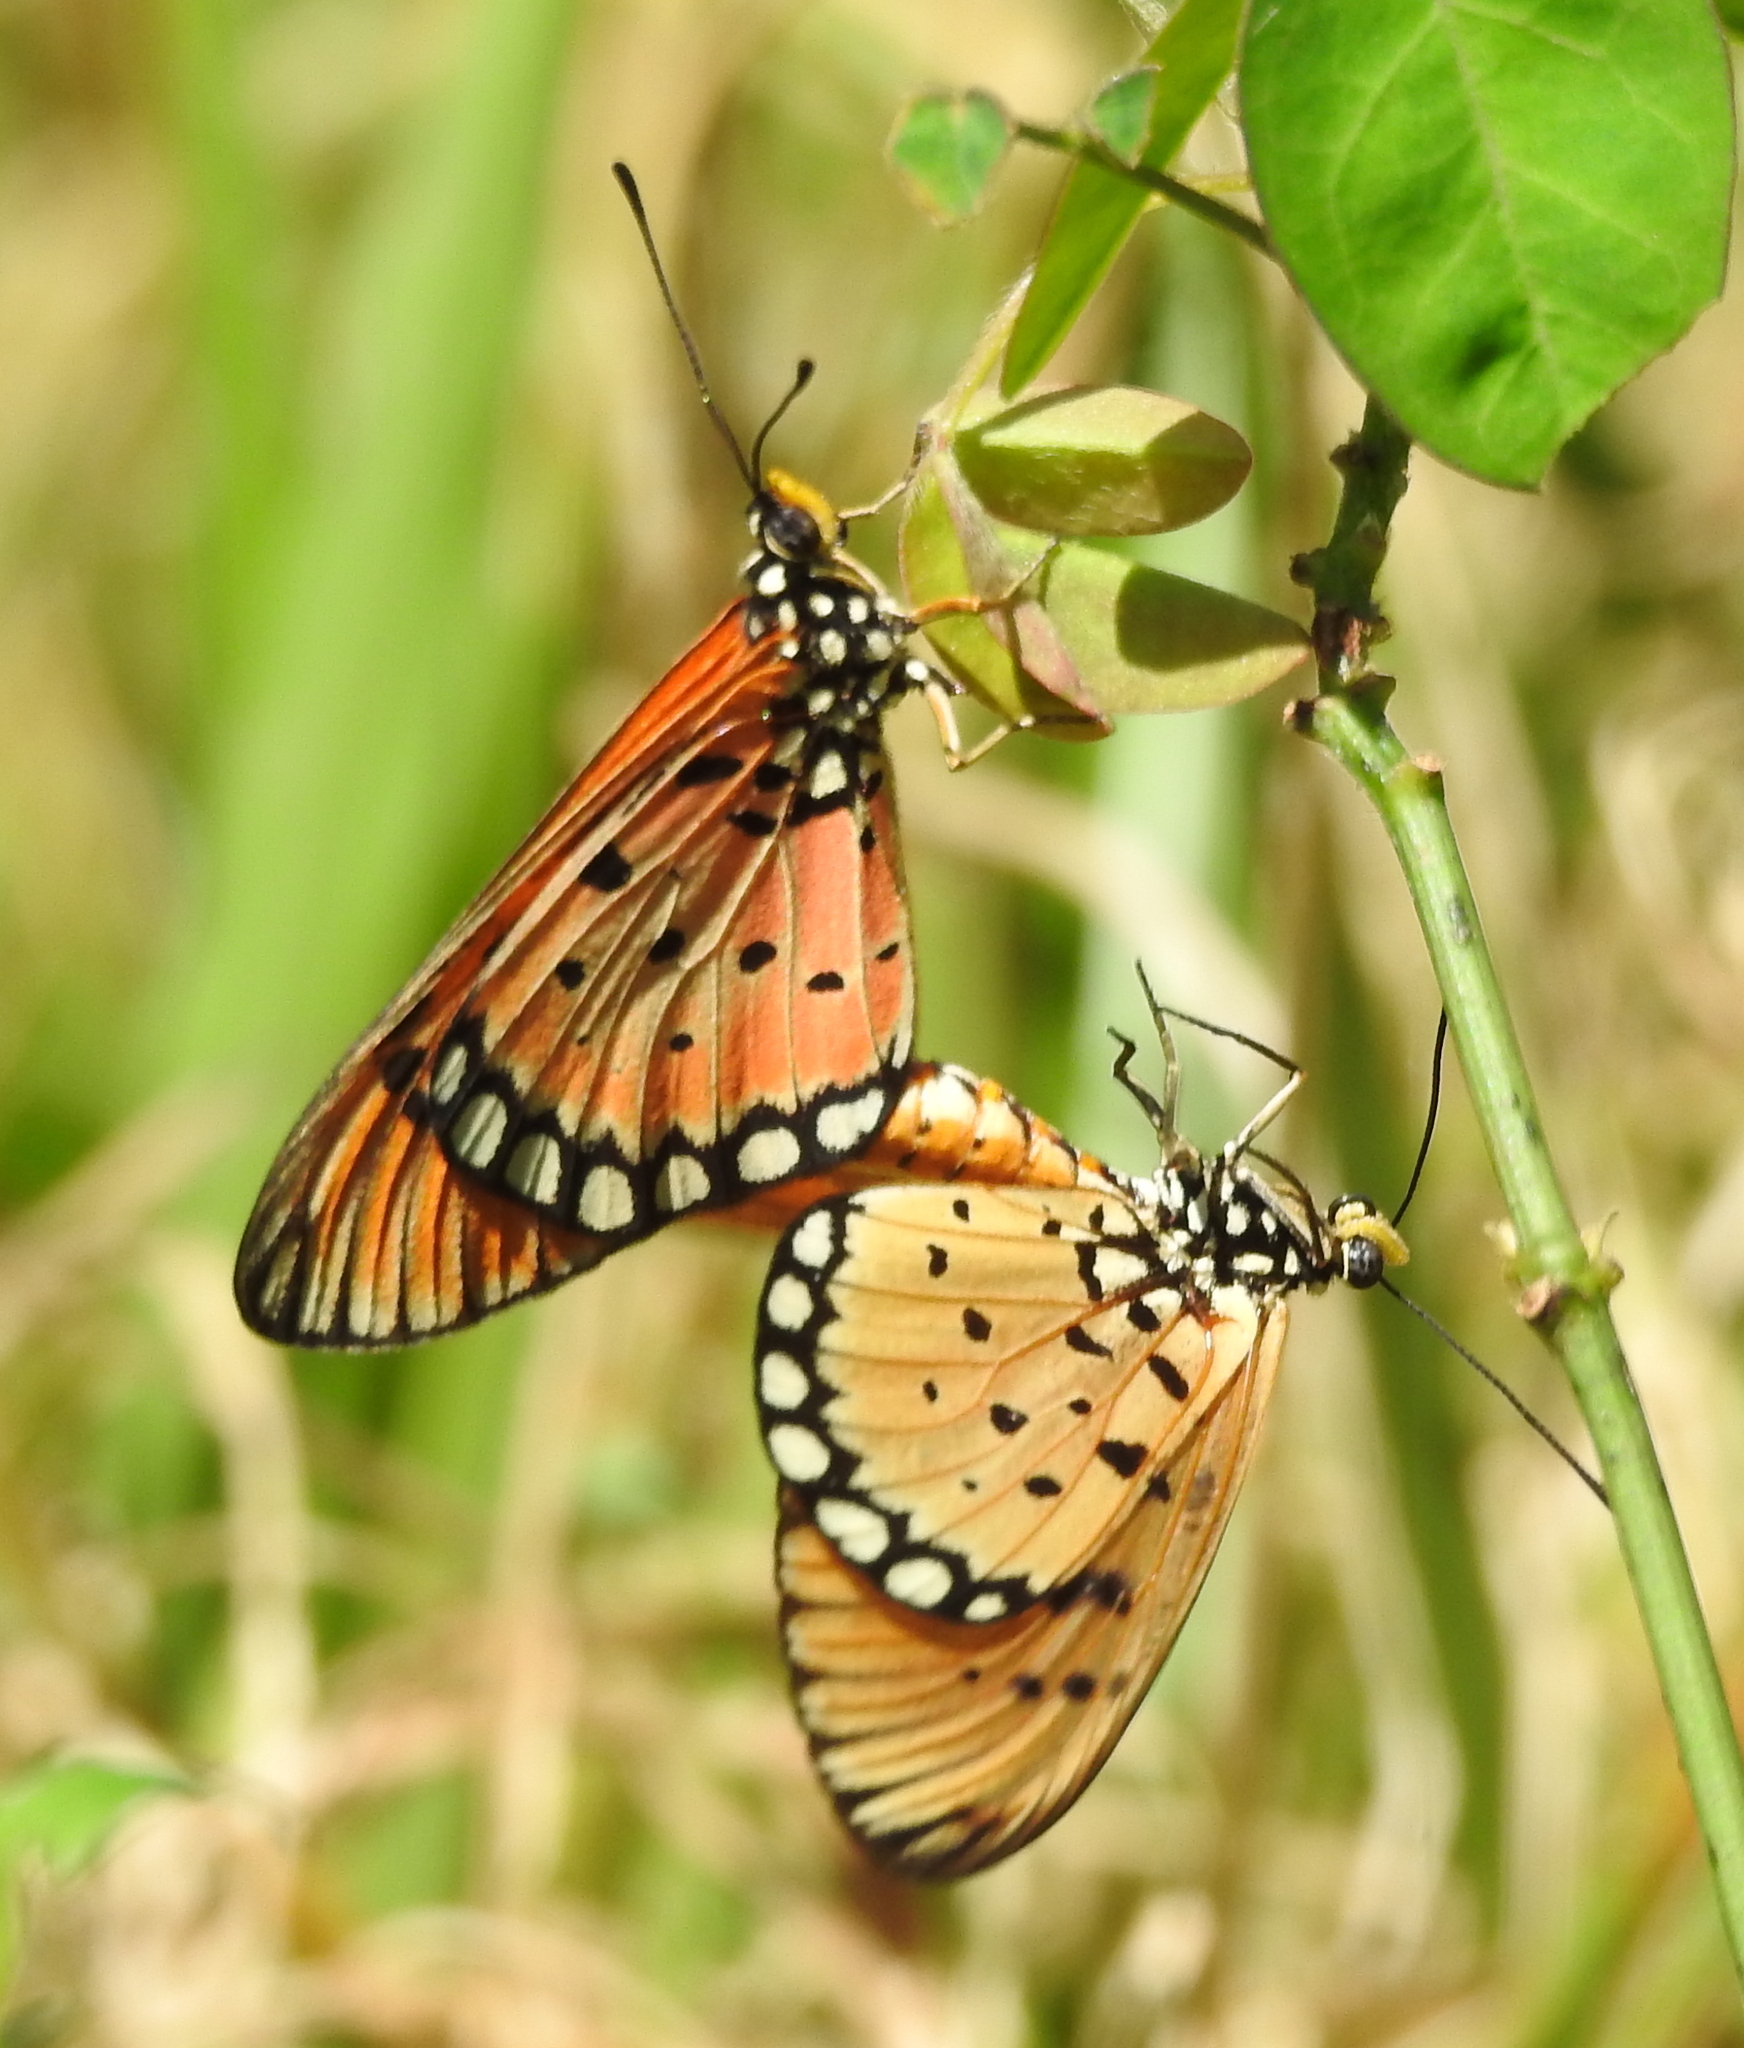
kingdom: Animalia
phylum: Arthropoda
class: Insecta
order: Lepidoptera
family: Nymphalidae
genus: Acraea
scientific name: Acraea terpsicore
